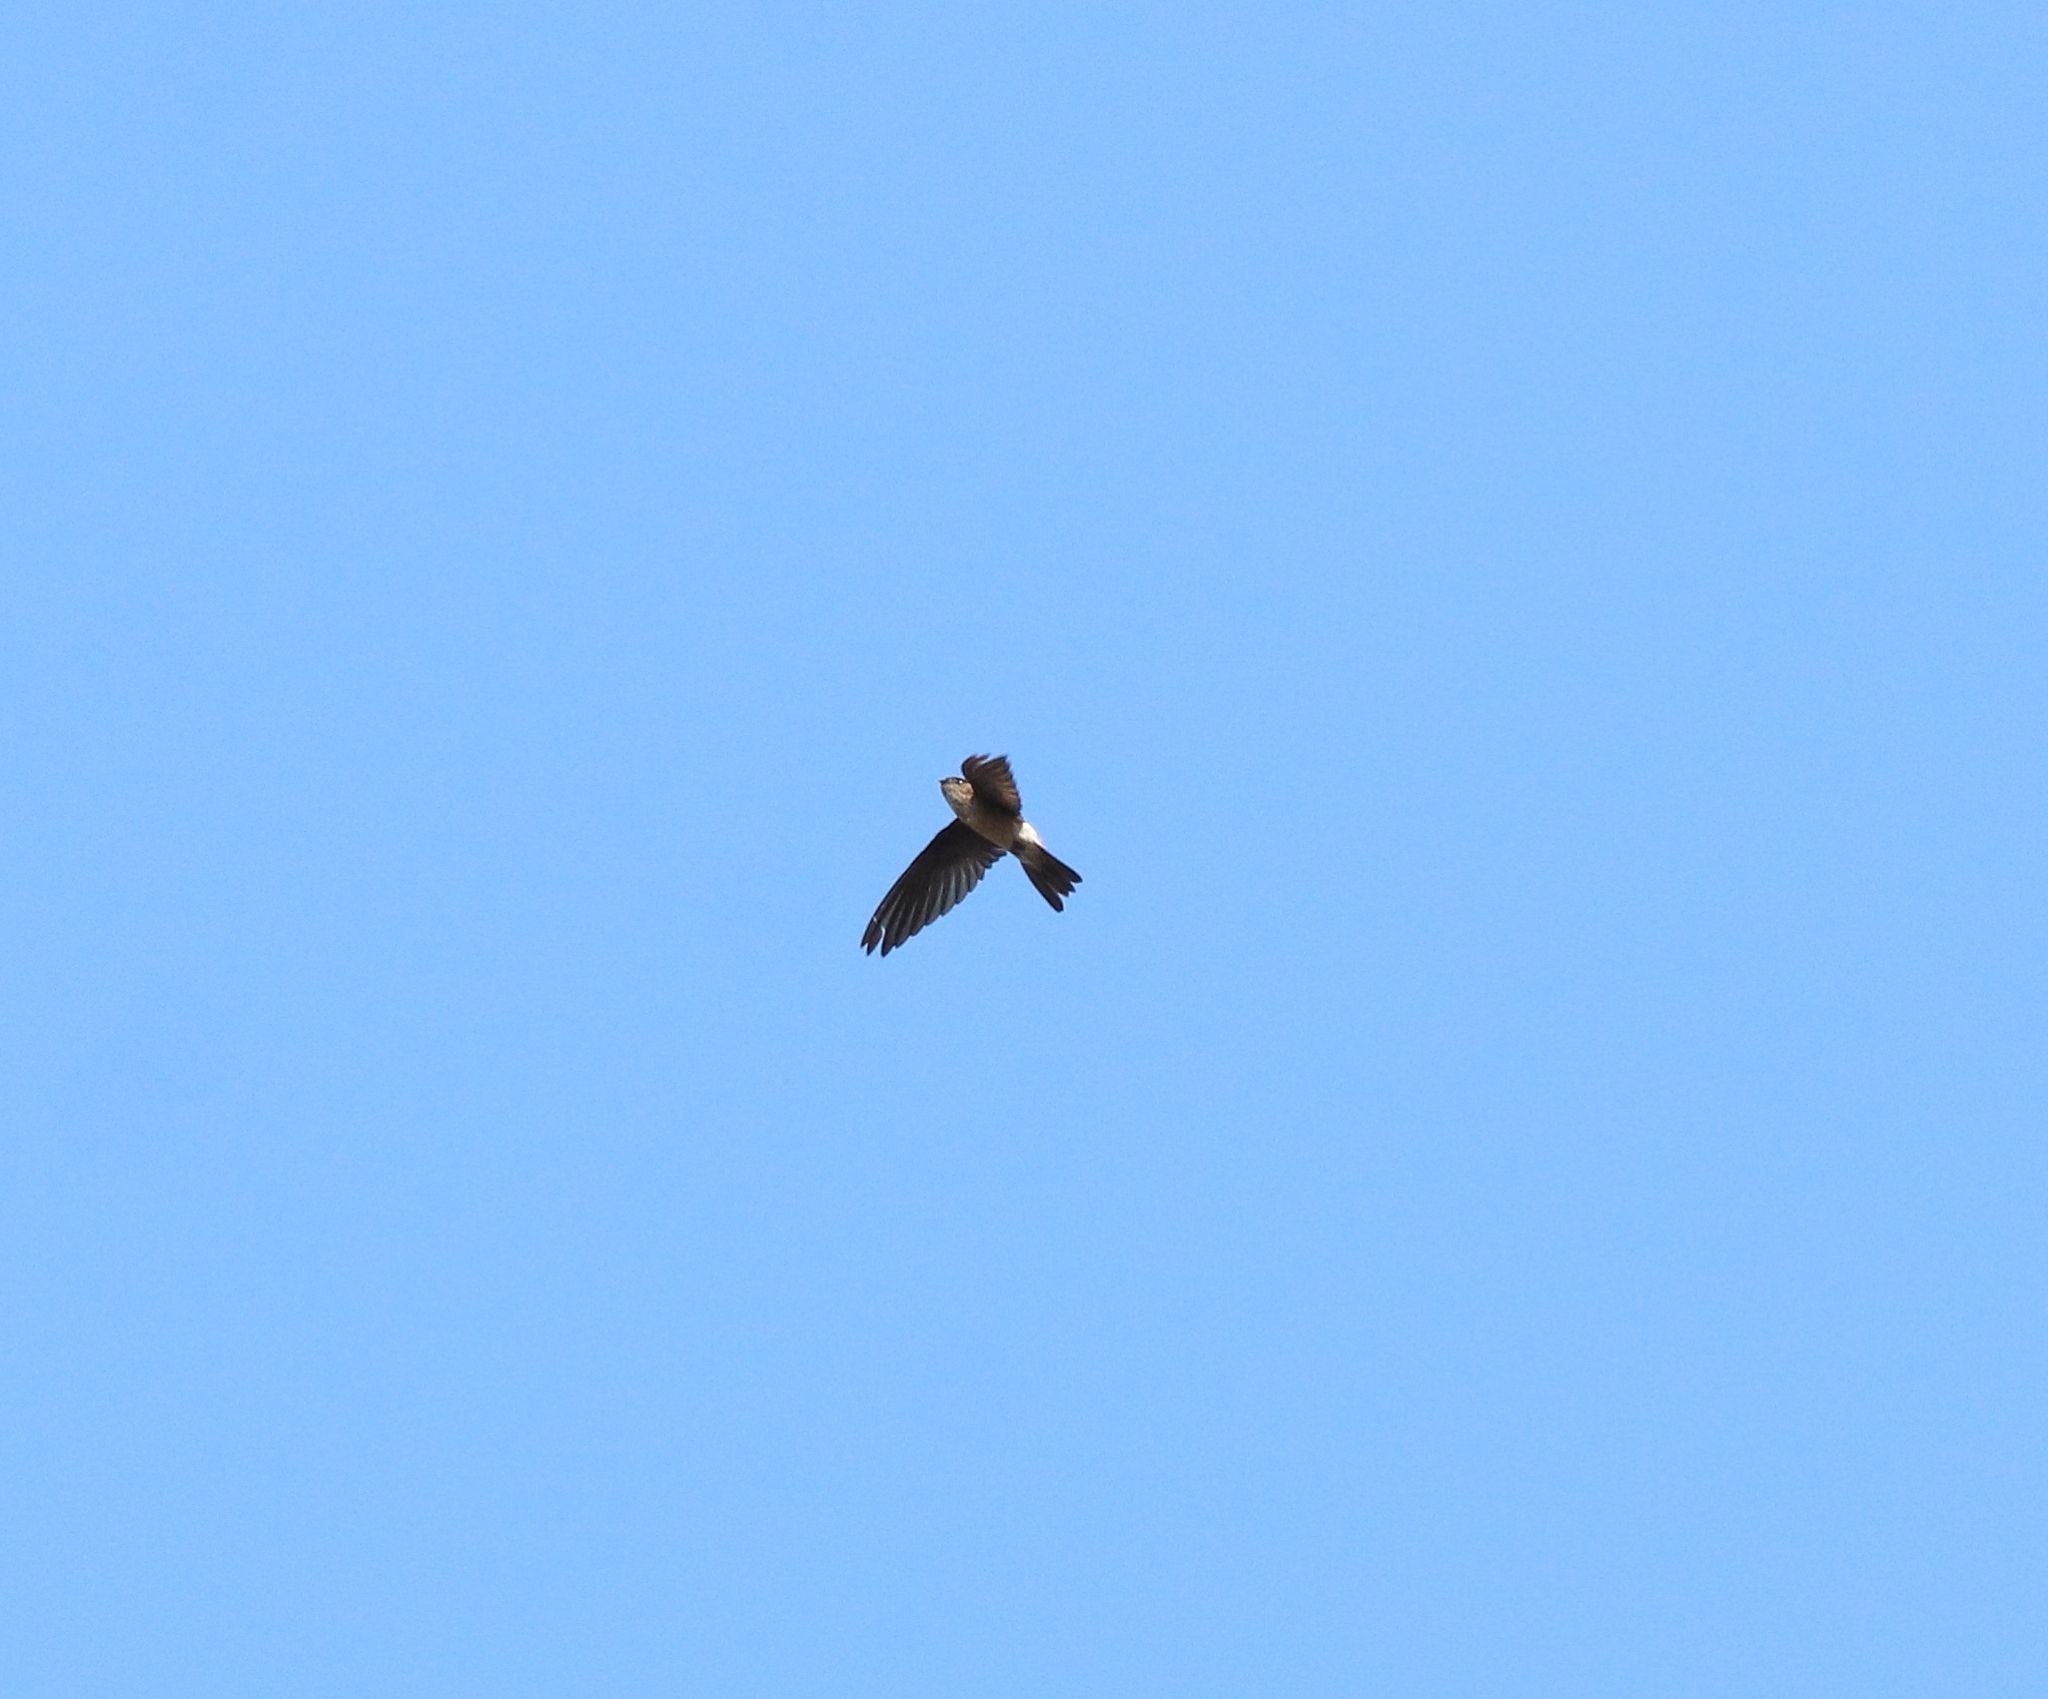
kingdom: Animalia
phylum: Chordata
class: Aves
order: Apodiformes
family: Apodidae
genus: Aerodramus
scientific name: Aerodramus unicolor
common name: Indian swiftlet
